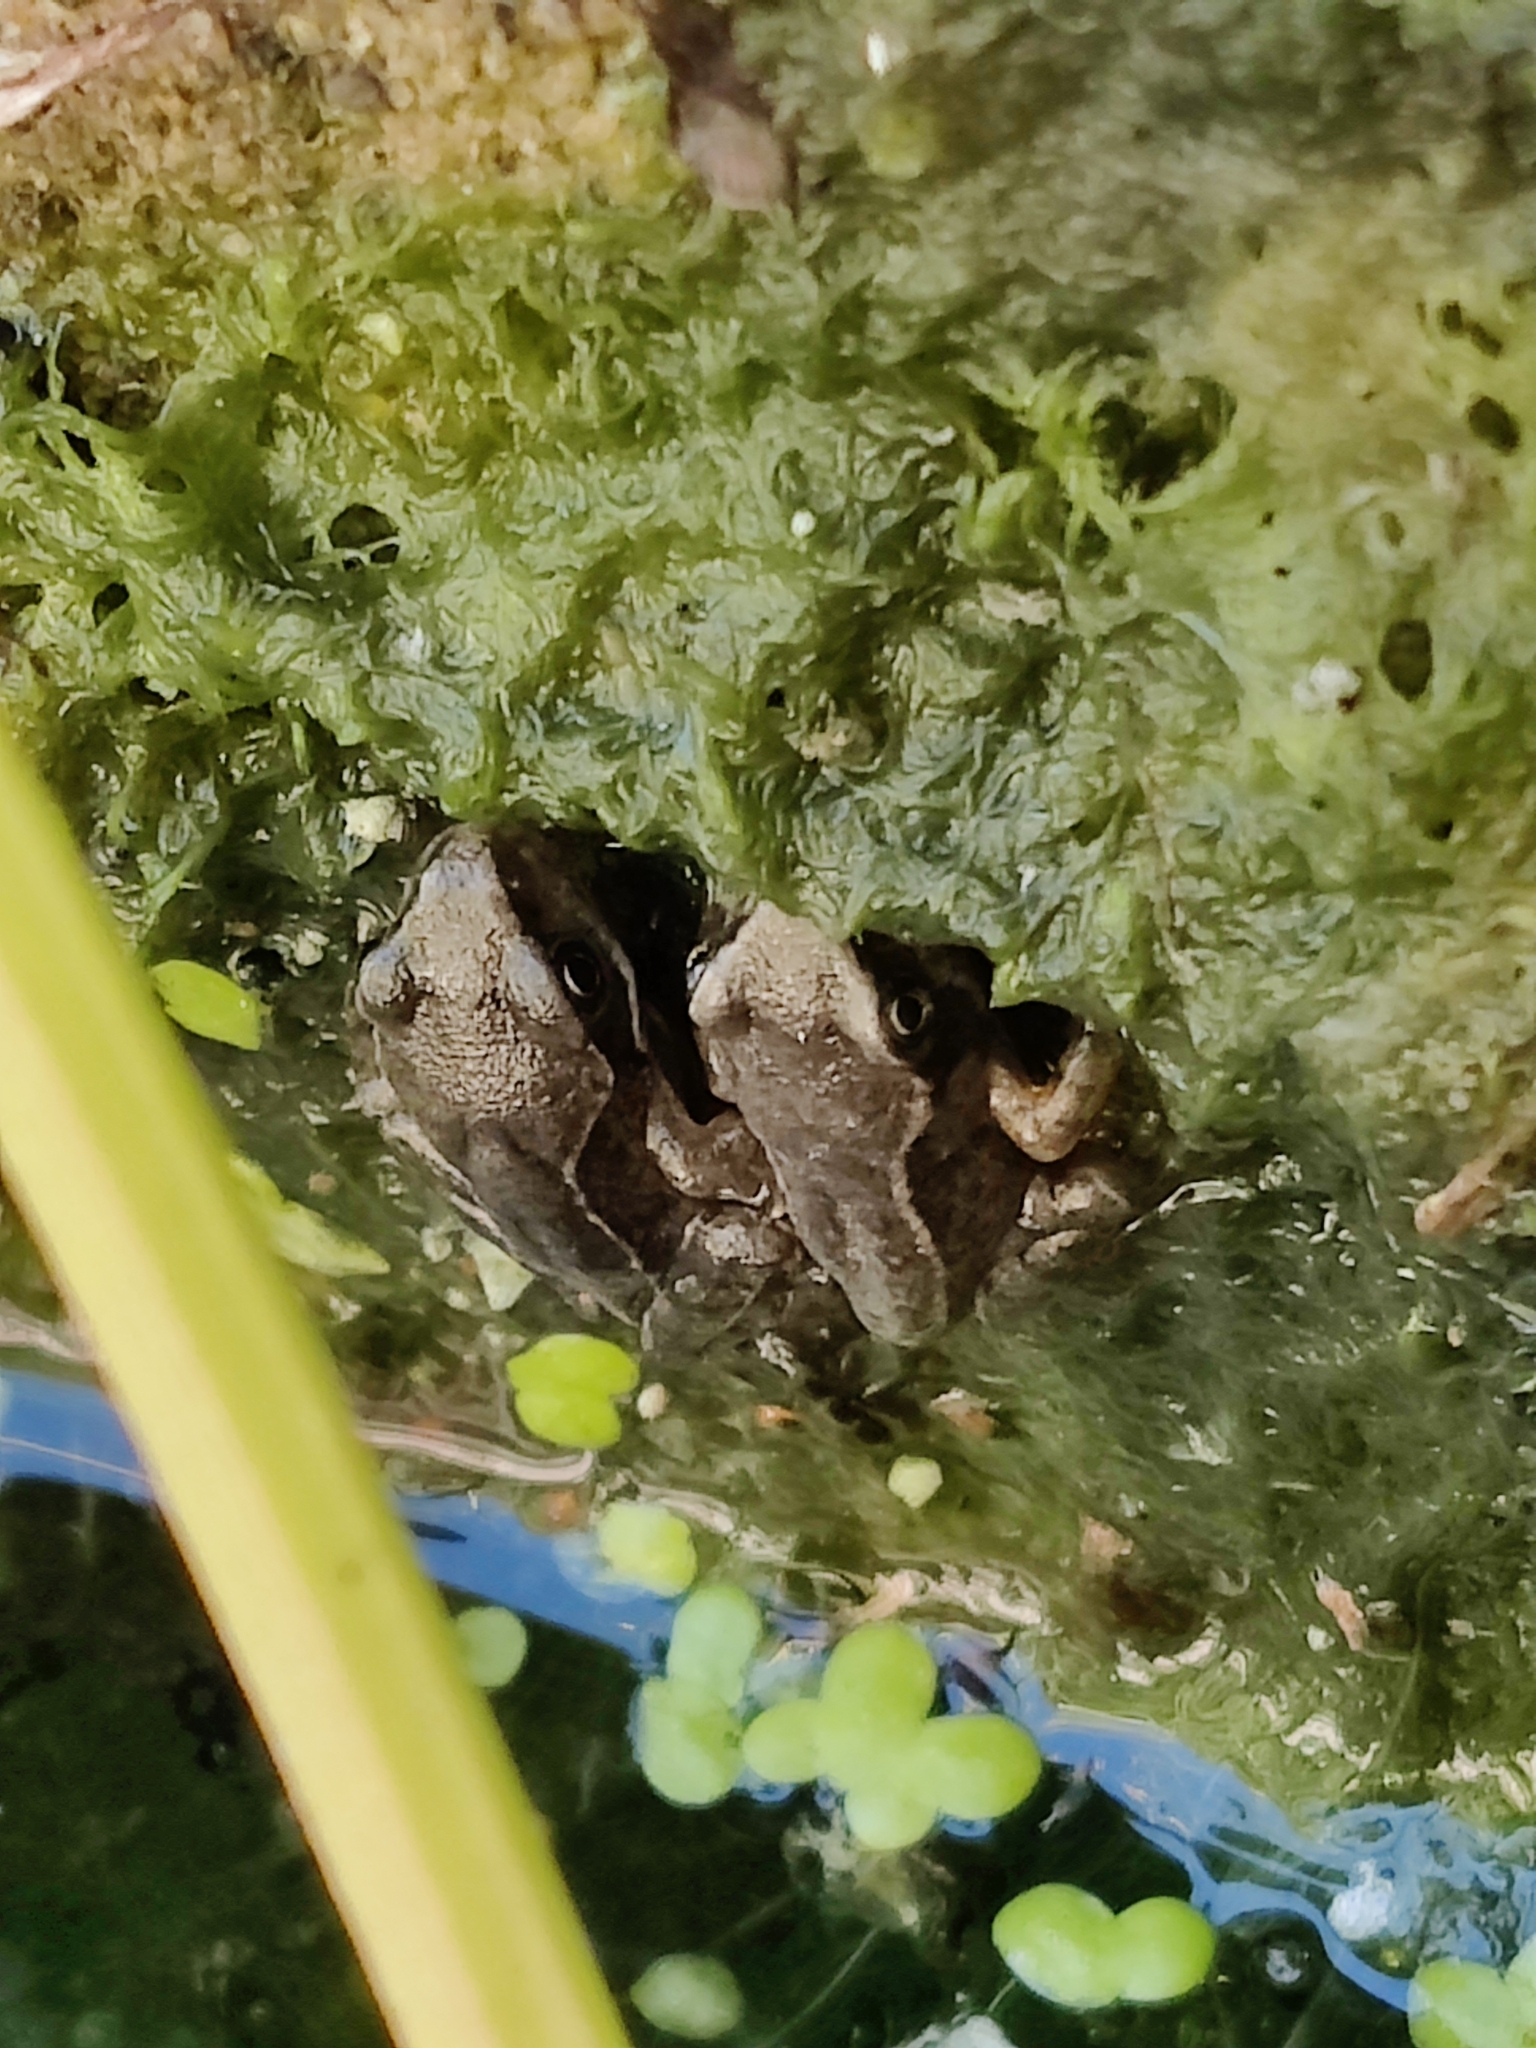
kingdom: Animalia
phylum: Chordata
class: Amphibia
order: Anura
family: Ranidae
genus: Rana
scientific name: Rana temporaria
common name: Common frog
